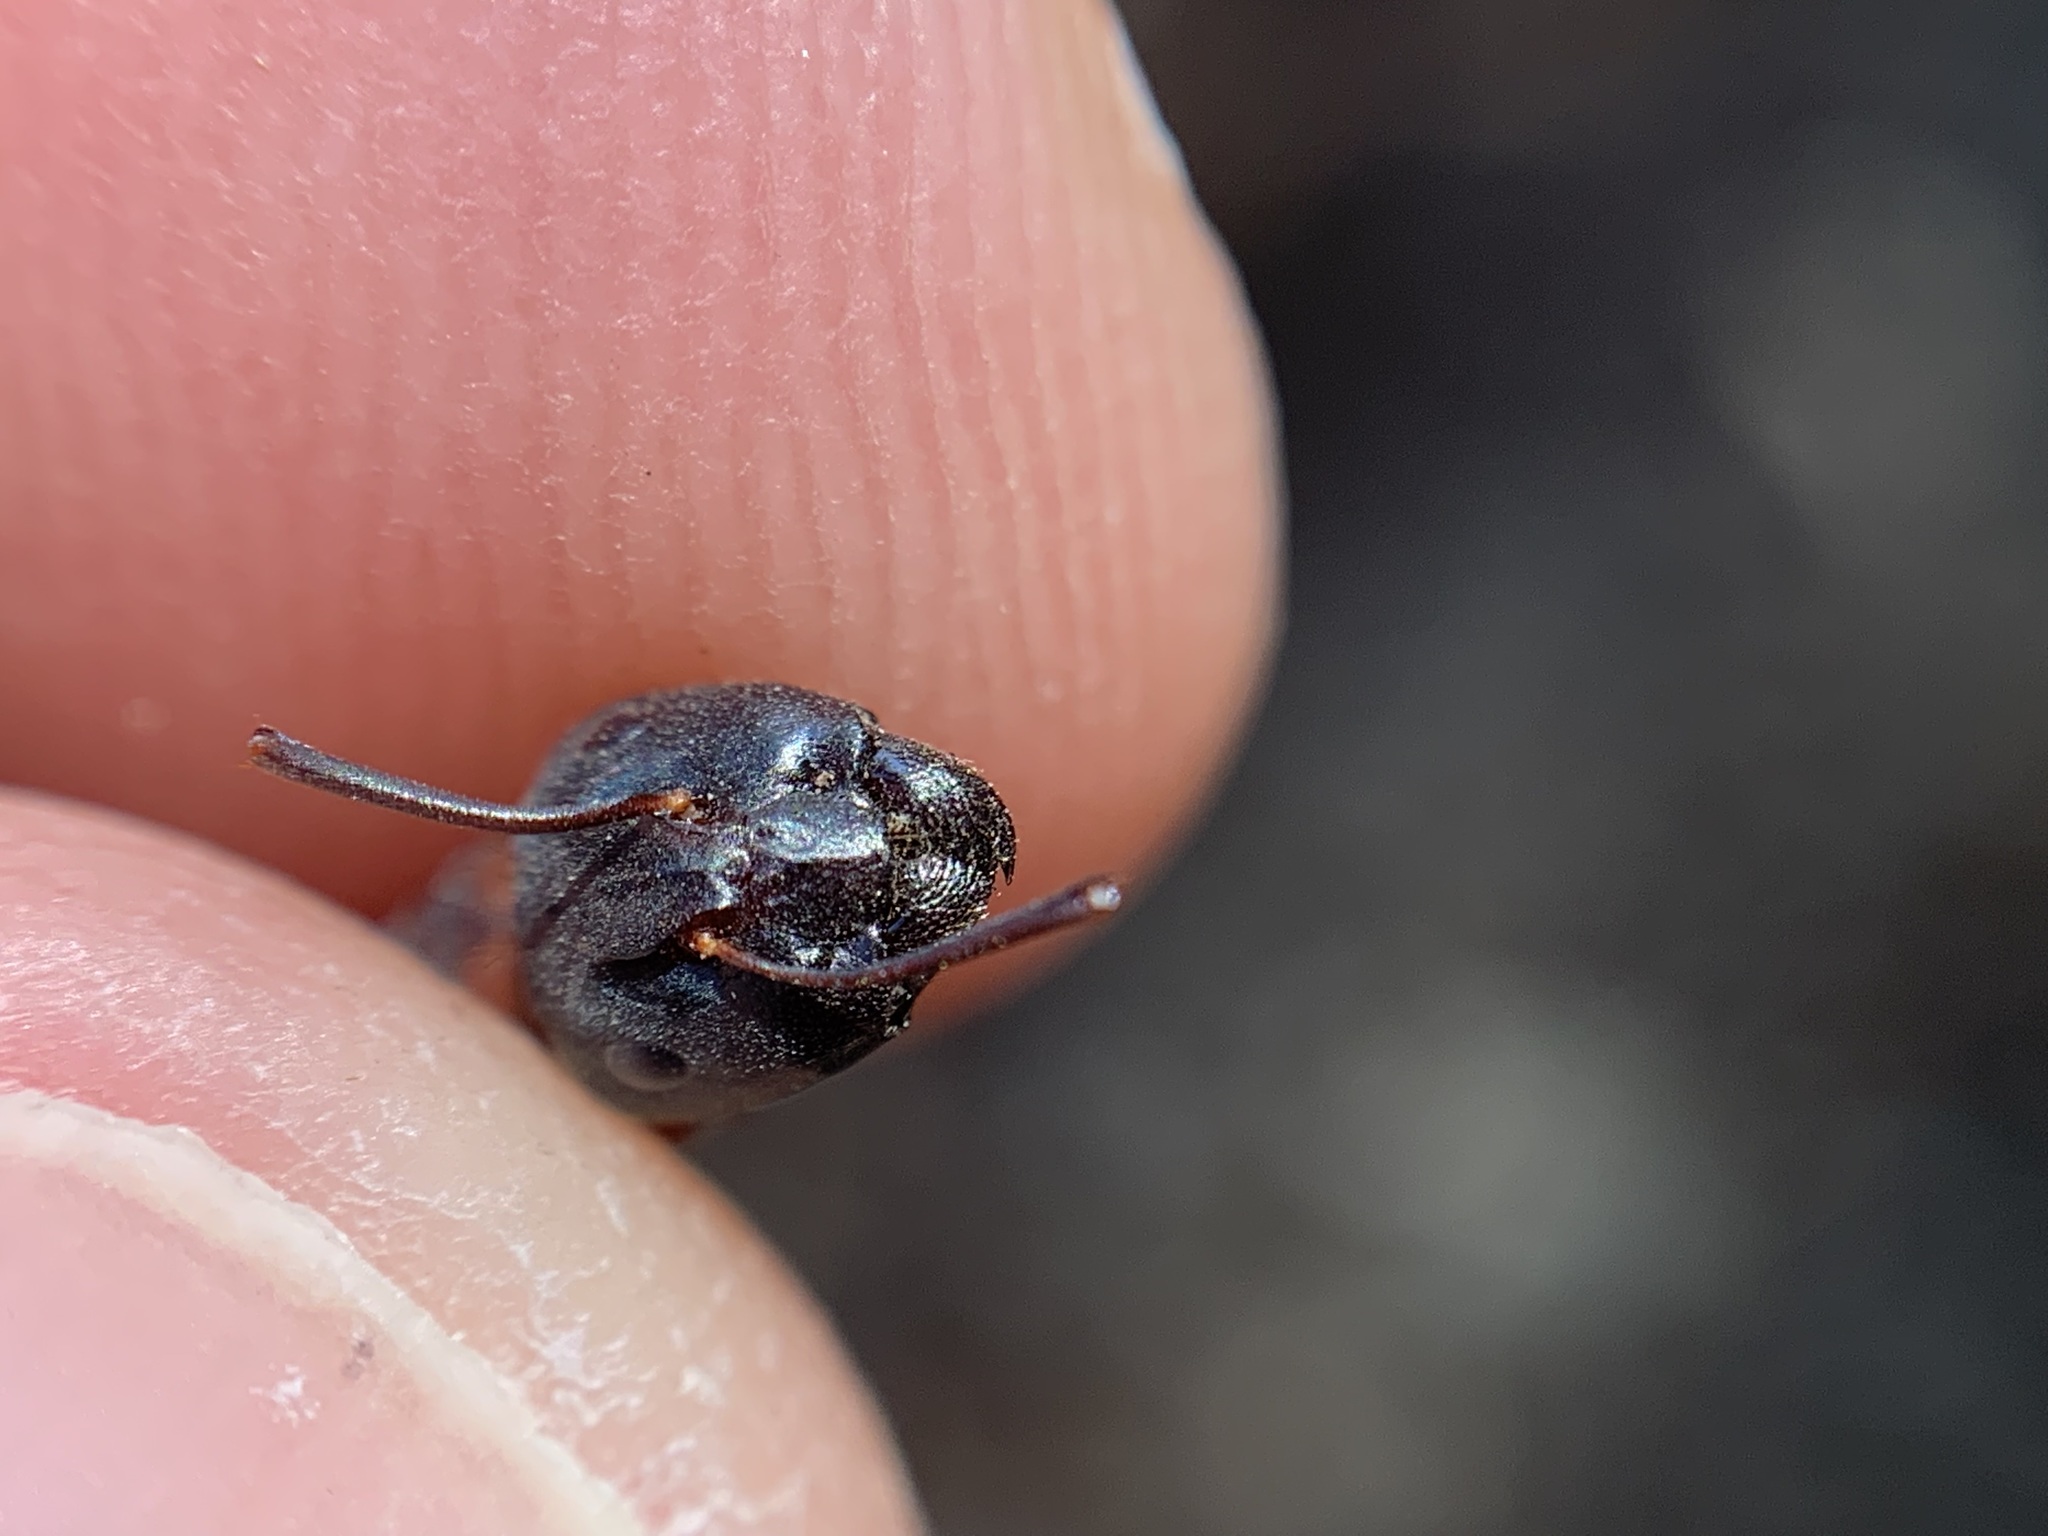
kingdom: Animalia
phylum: Arthropoda
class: Insecta
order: Hymenoptera
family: Formicidae
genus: Camponotus
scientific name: Camponotus vicinus
